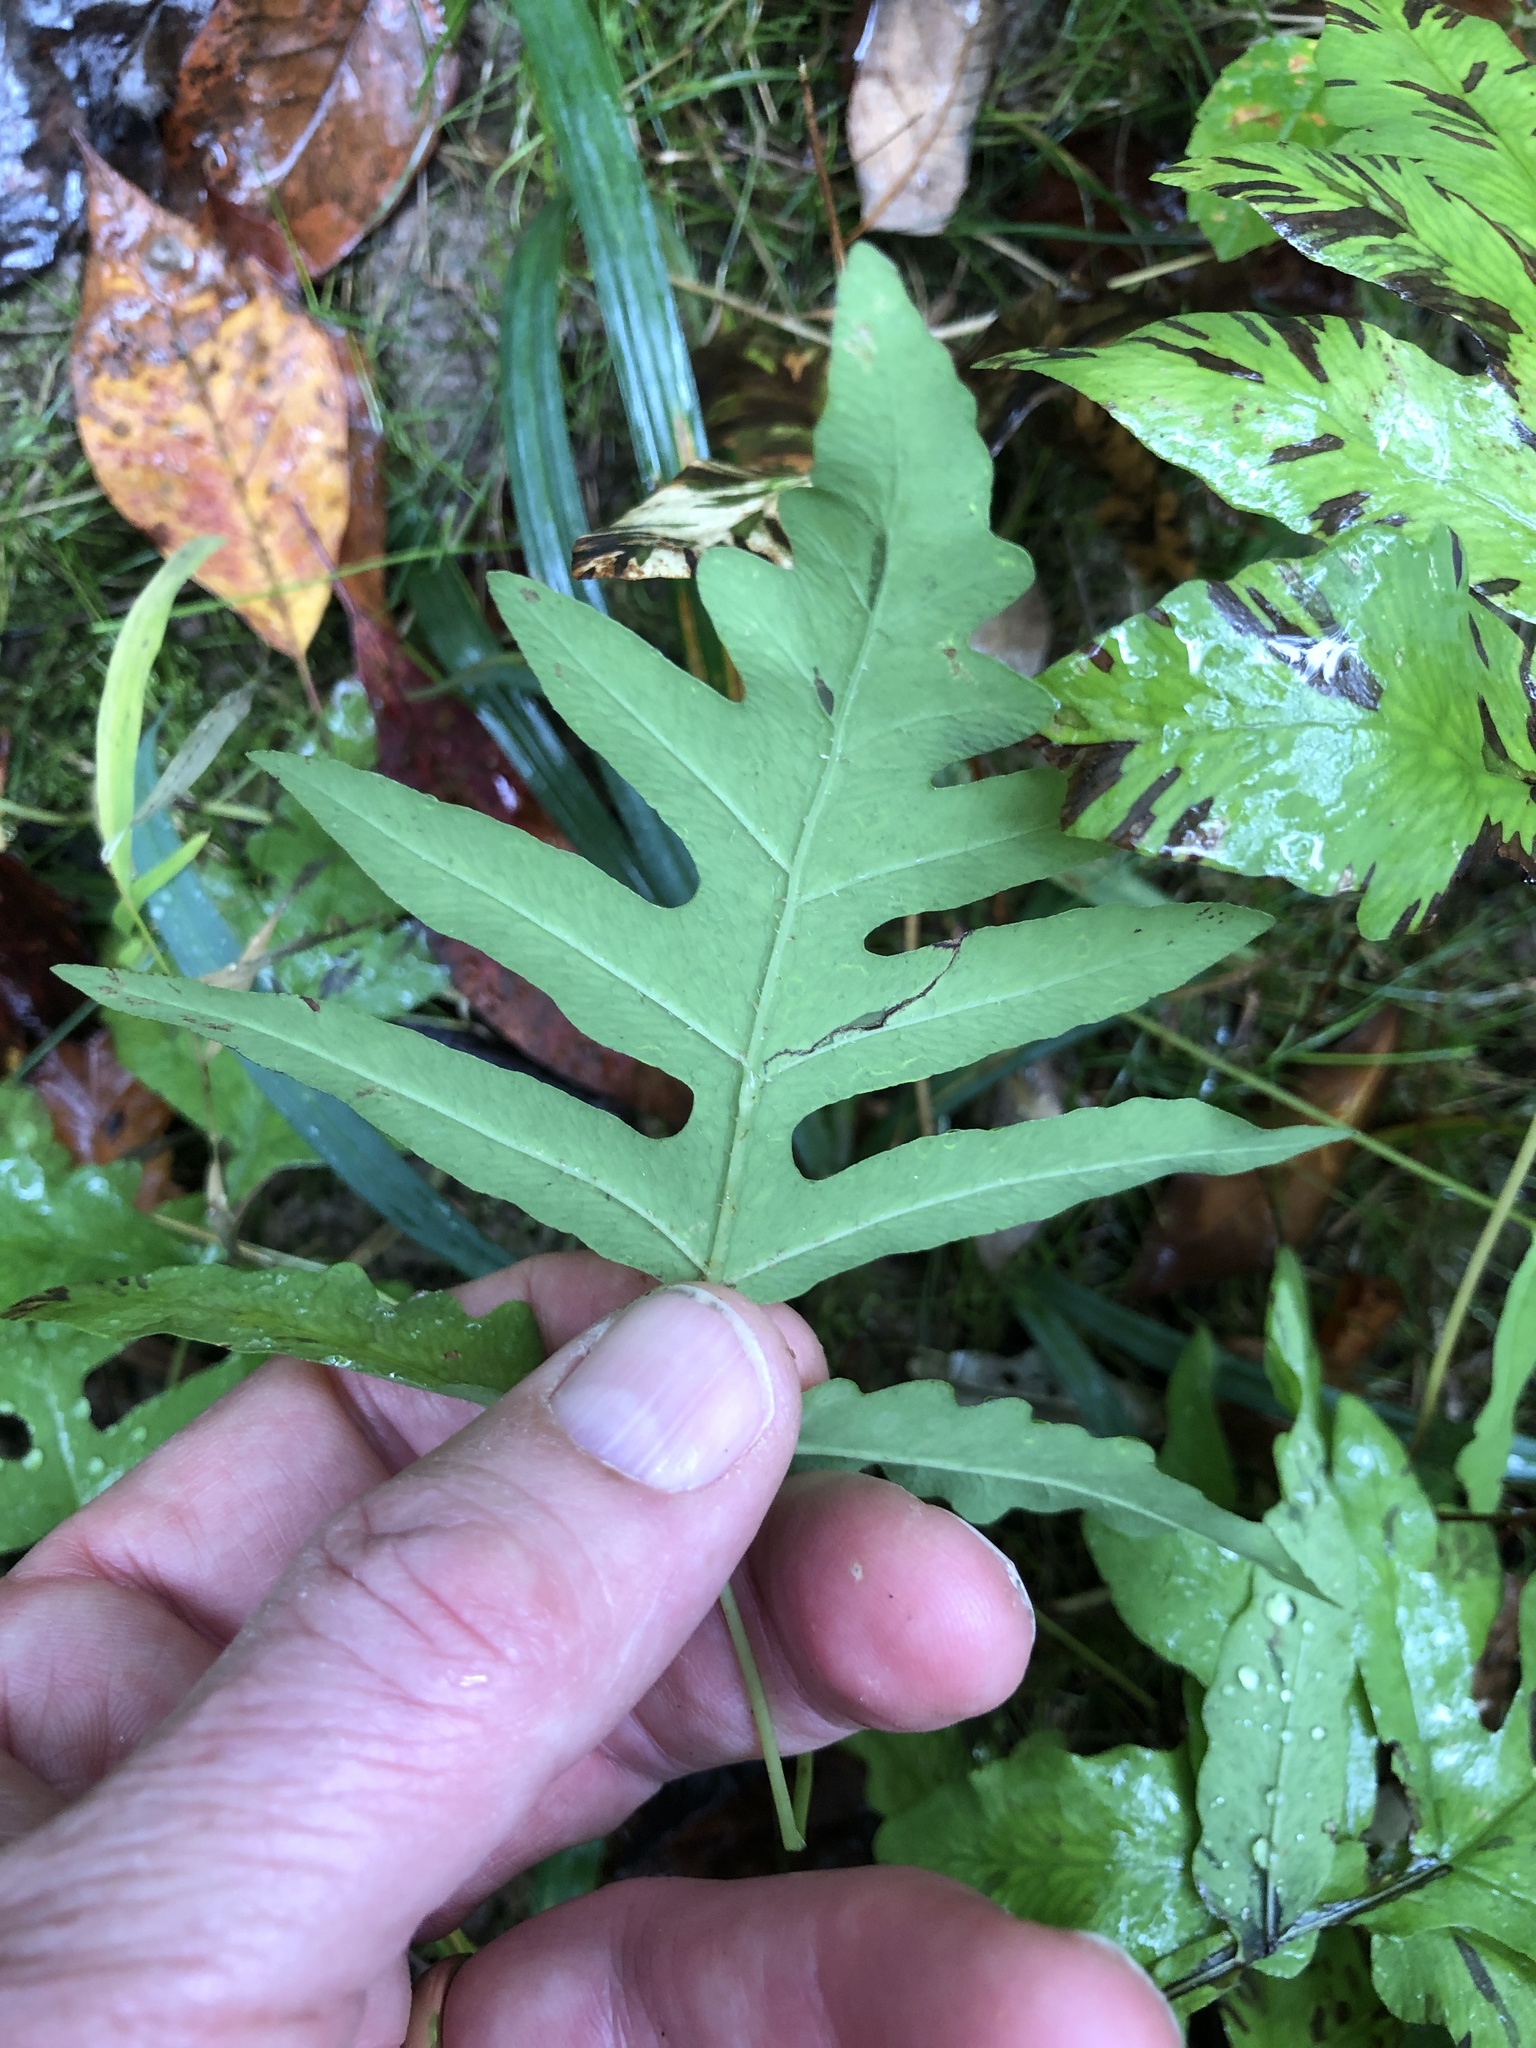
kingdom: Plantae
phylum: Tracheophyta
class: Polypodiopsida
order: Polypodiales
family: Onocleaceae
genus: Onoclea
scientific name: Onoclea sensibilis
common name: Sensitive fern
